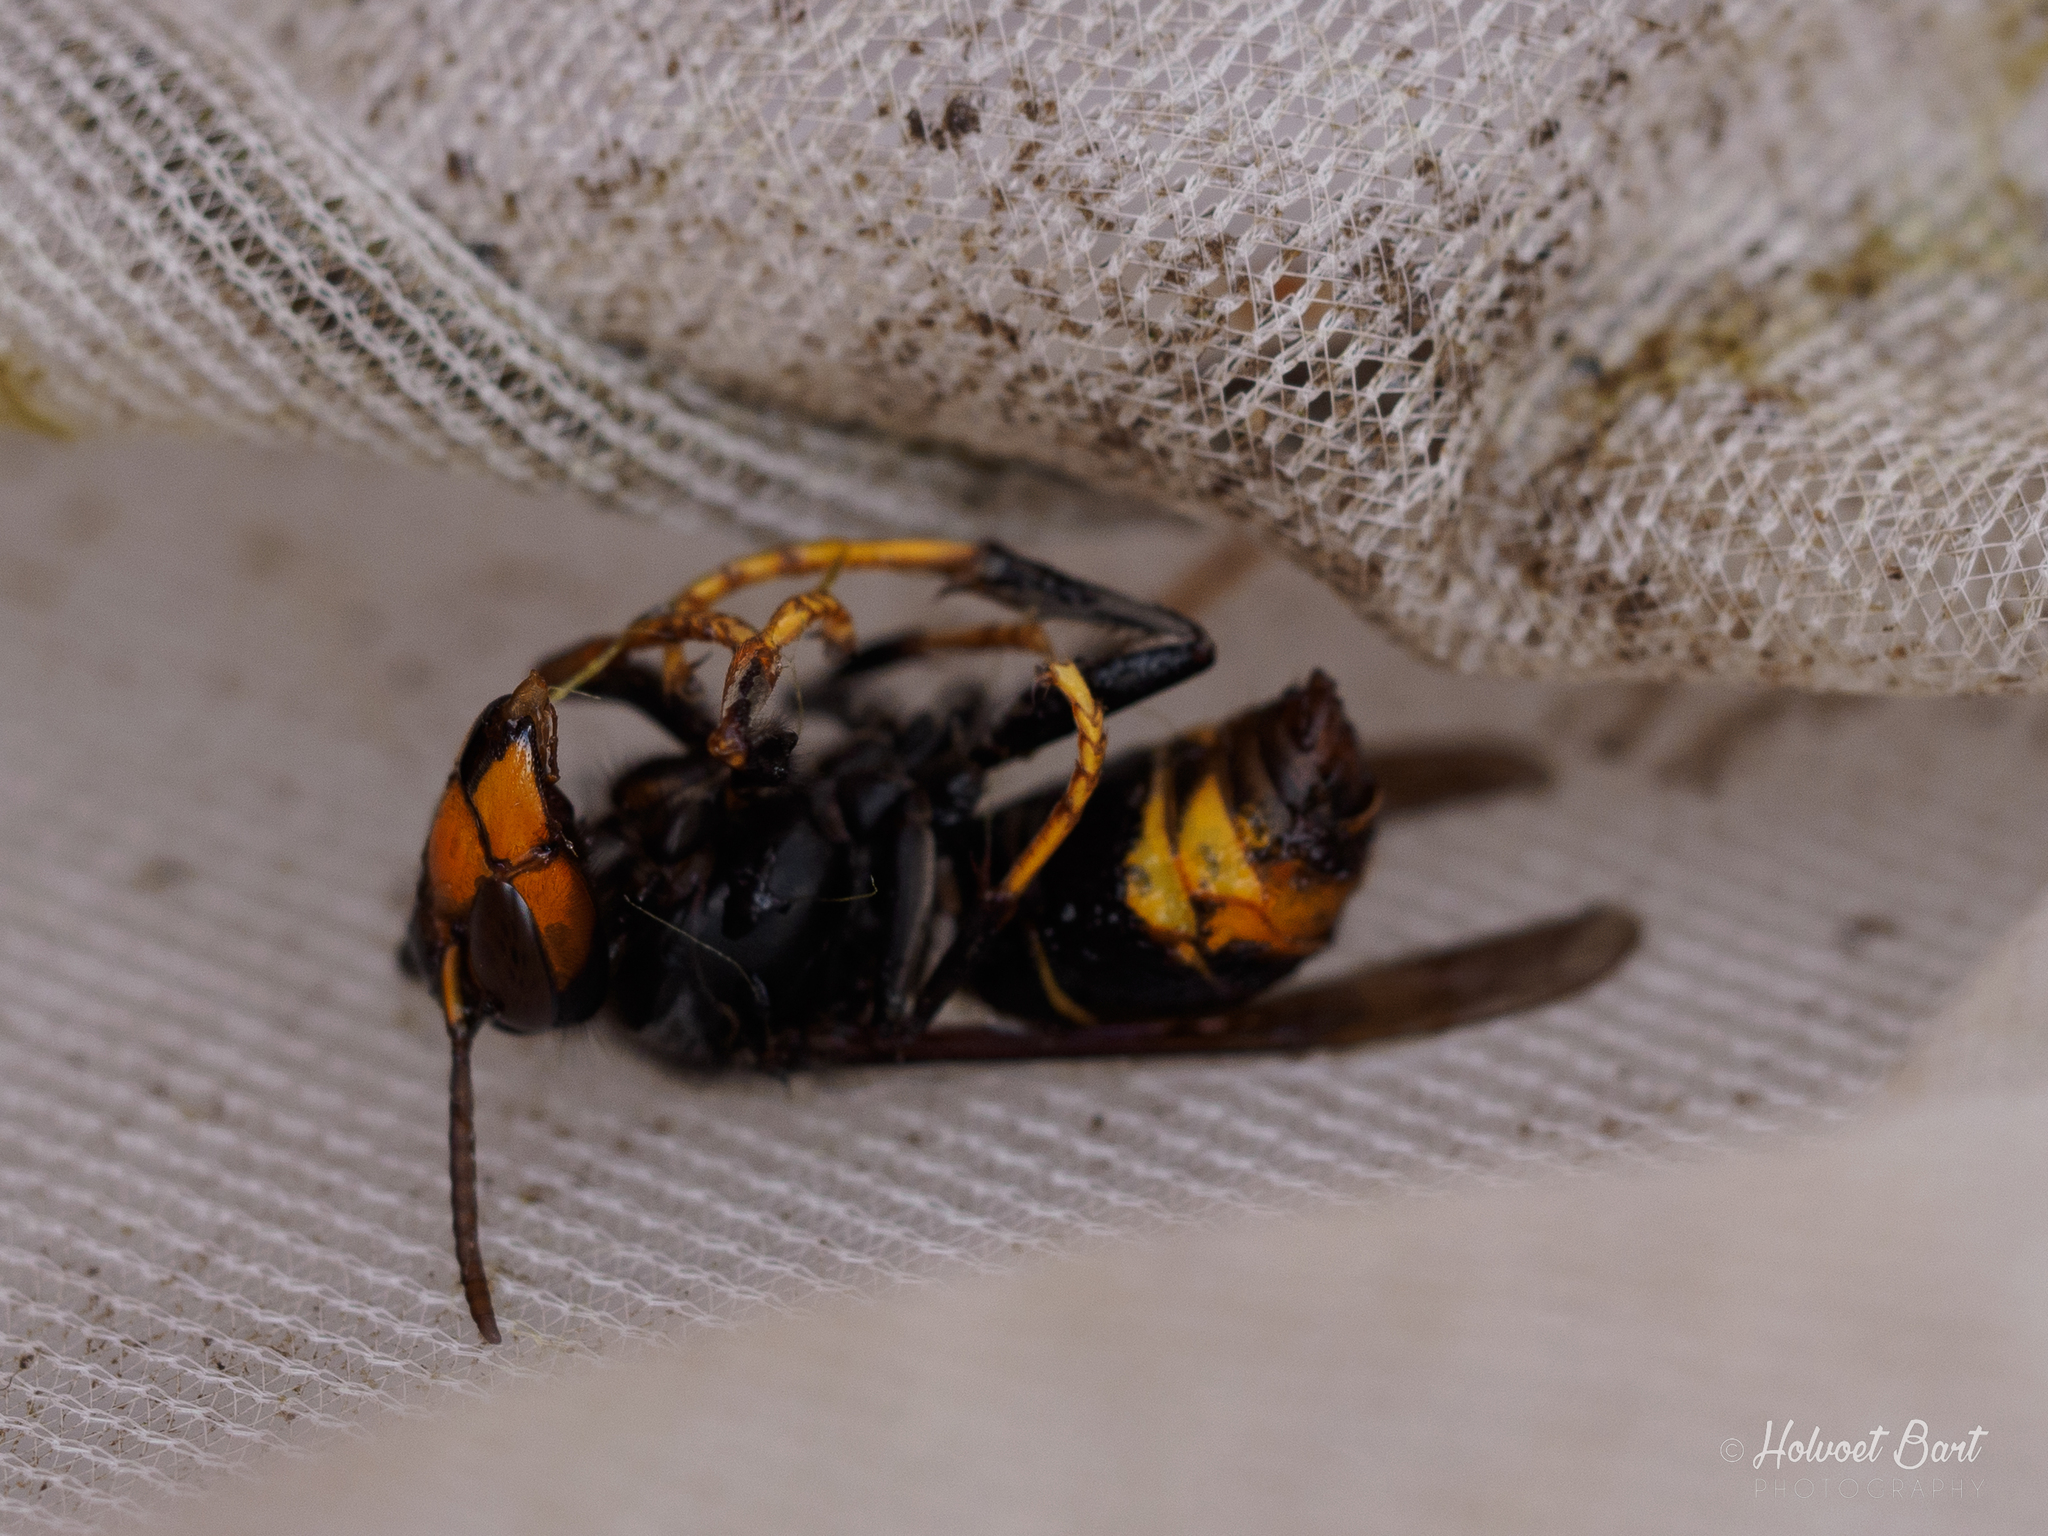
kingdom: Animalia
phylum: Arthropoda
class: Insecta
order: Hymenoptera
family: Vespidae
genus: Vespa
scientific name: Vespa velutina
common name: Asian hornet
